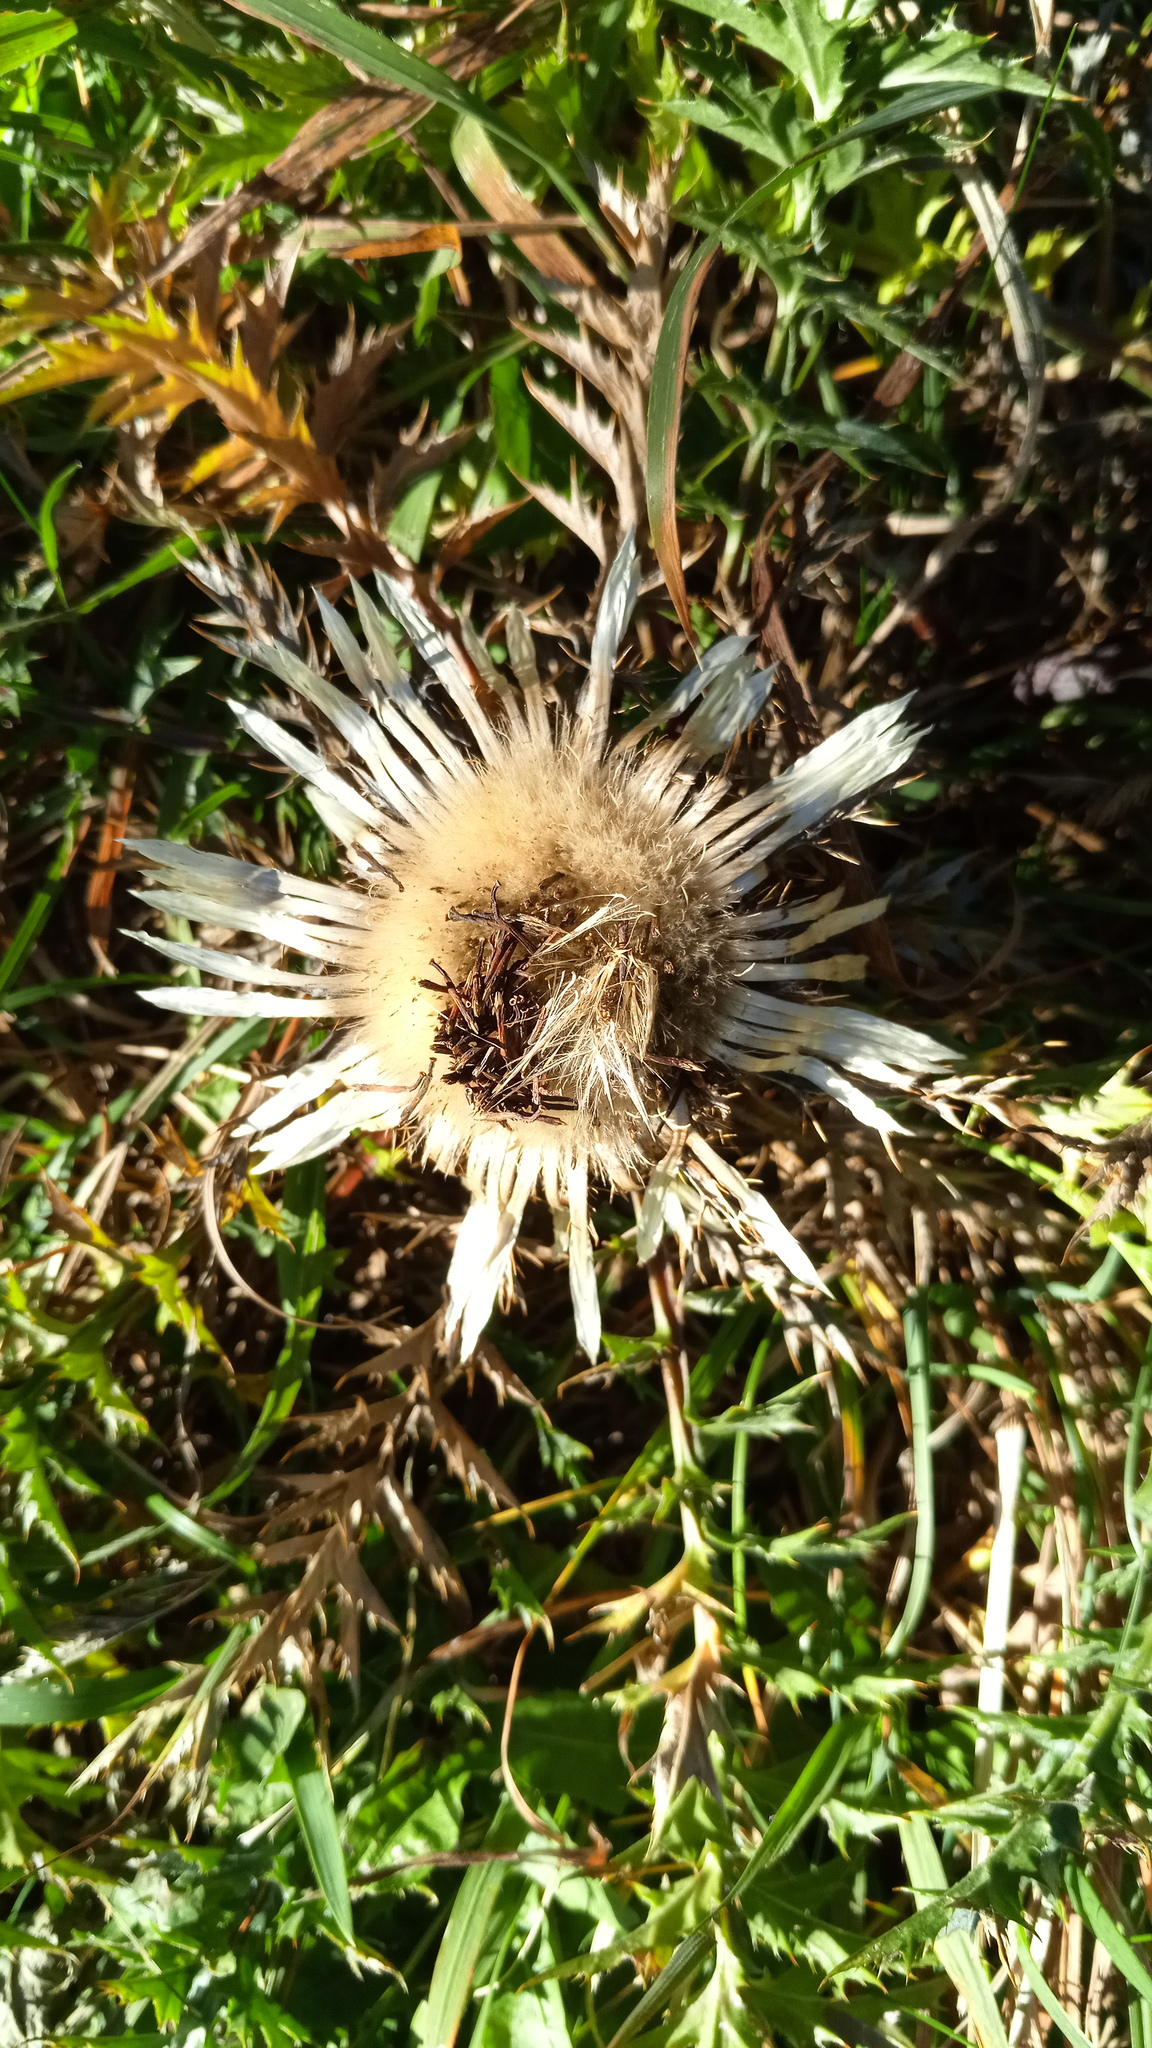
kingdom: Plantae
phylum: Tracheophyta
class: Magnoliopsida
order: Asterales
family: Asteraceae
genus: Carlina
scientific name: Carlina acaulis
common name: Stemless carline thistle
